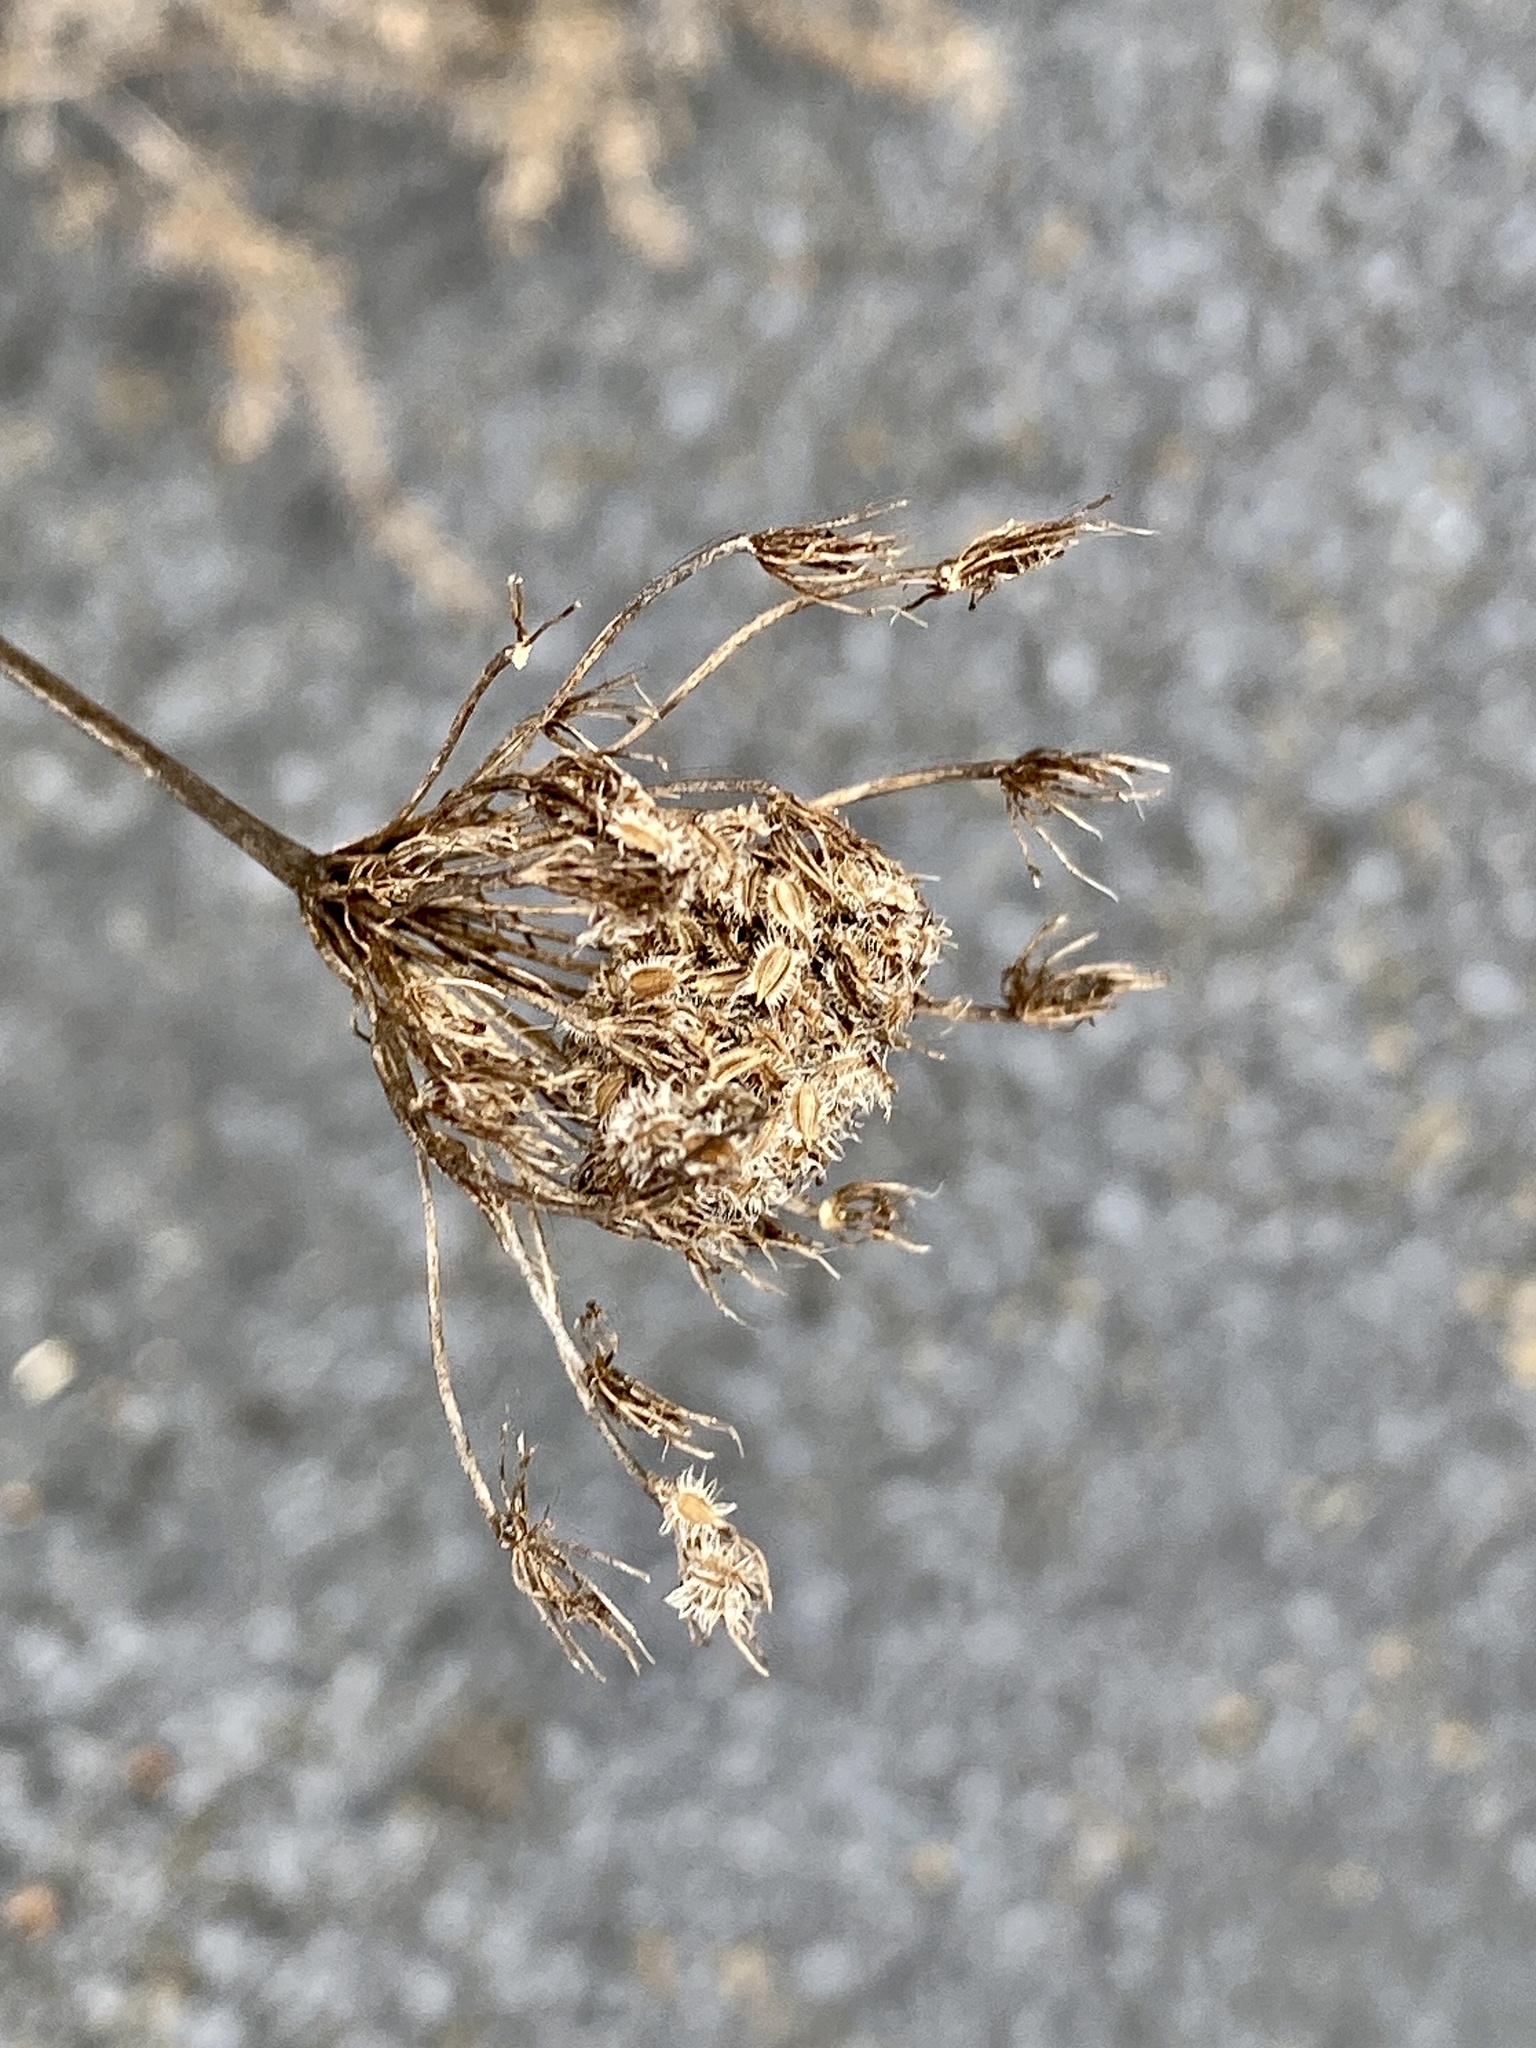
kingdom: Plantae
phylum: Tracheophyta
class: Magnoliopsida
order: Apiales
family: Apiaceae
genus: Daucus
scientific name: Daucus carota
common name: Wild carrot
